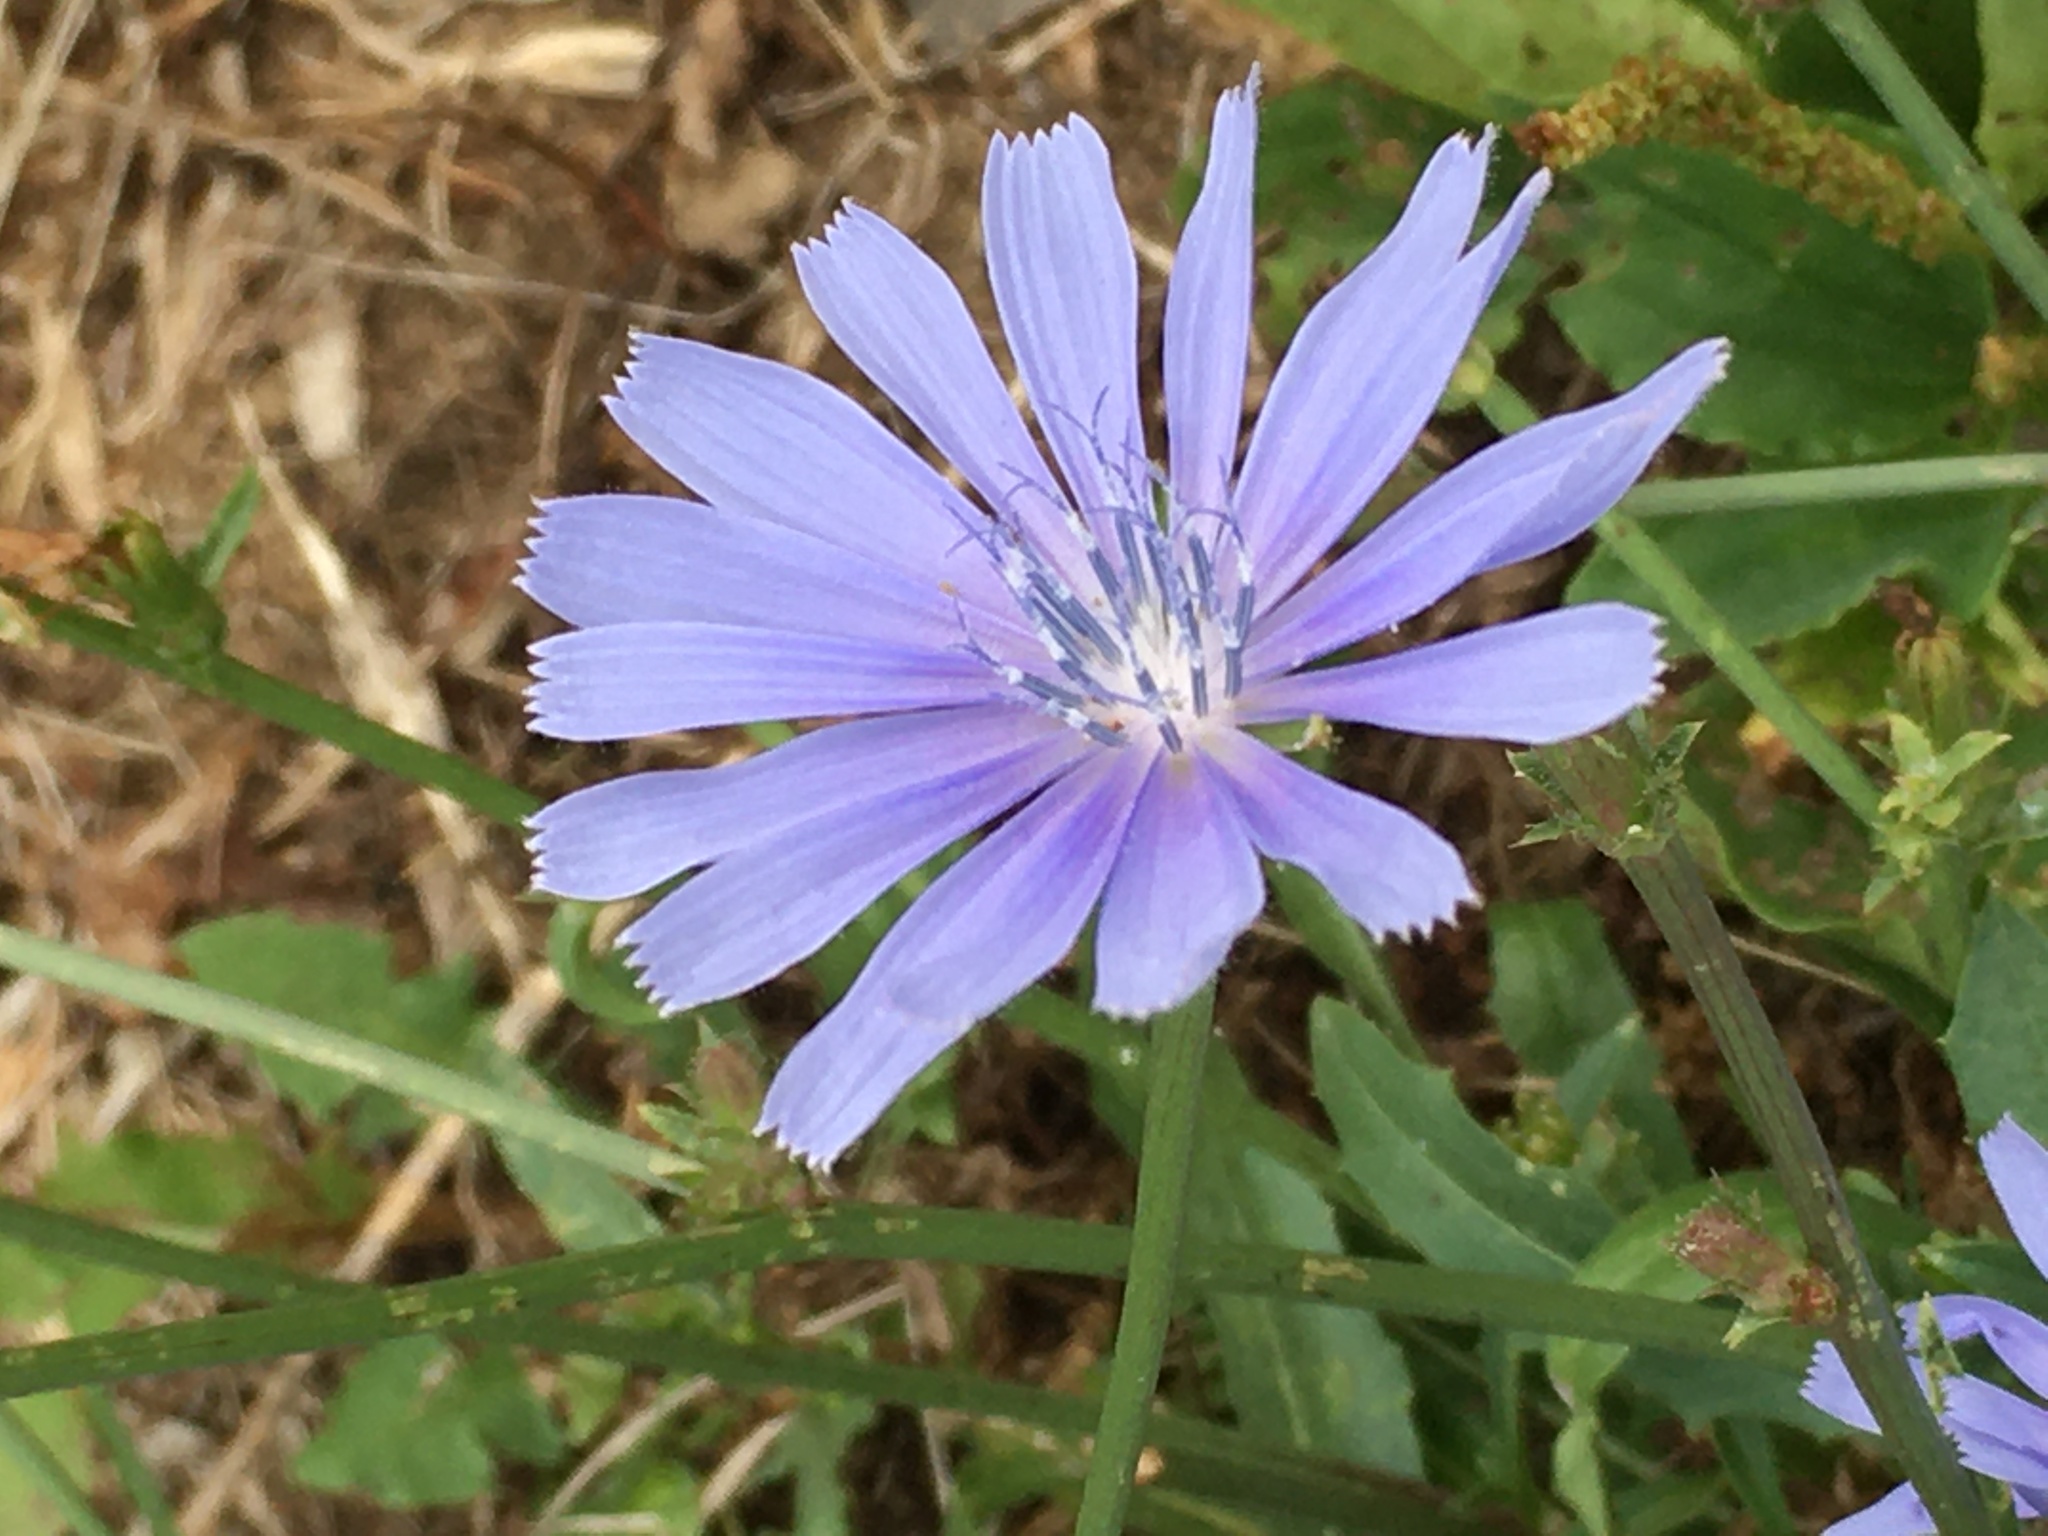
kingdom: Plantae
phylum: Tracheophyta
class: Magnoliopsida
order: Asterales
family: Asteraceae
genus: Cichorium
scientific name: Cichorium intybus
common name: Chicory
